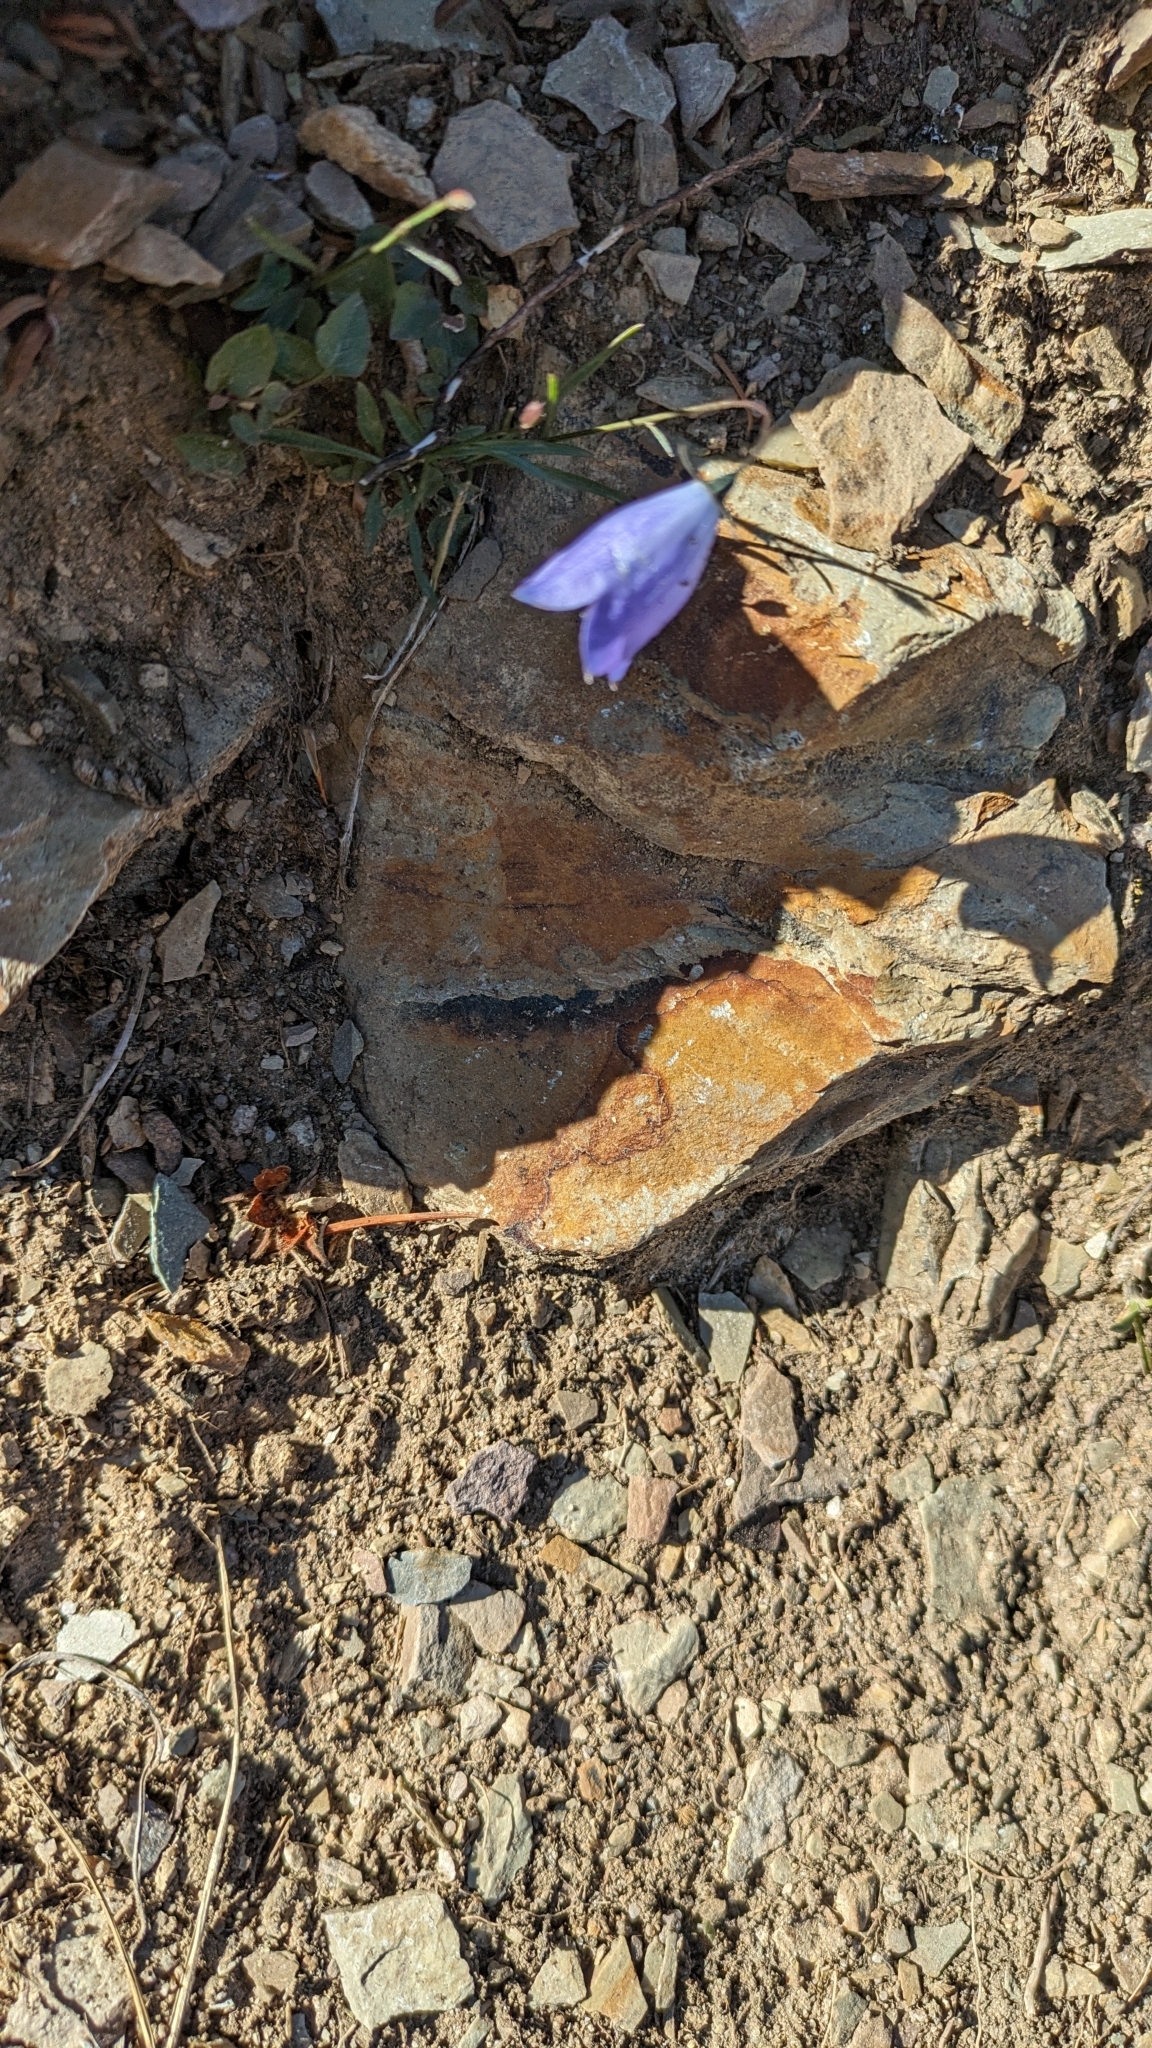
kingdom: Plantae
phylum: Tracheophyta
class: Magnoliopsida
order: Asterales
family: Campanulaceae
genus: Campanula
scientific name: Campanula alaskana
